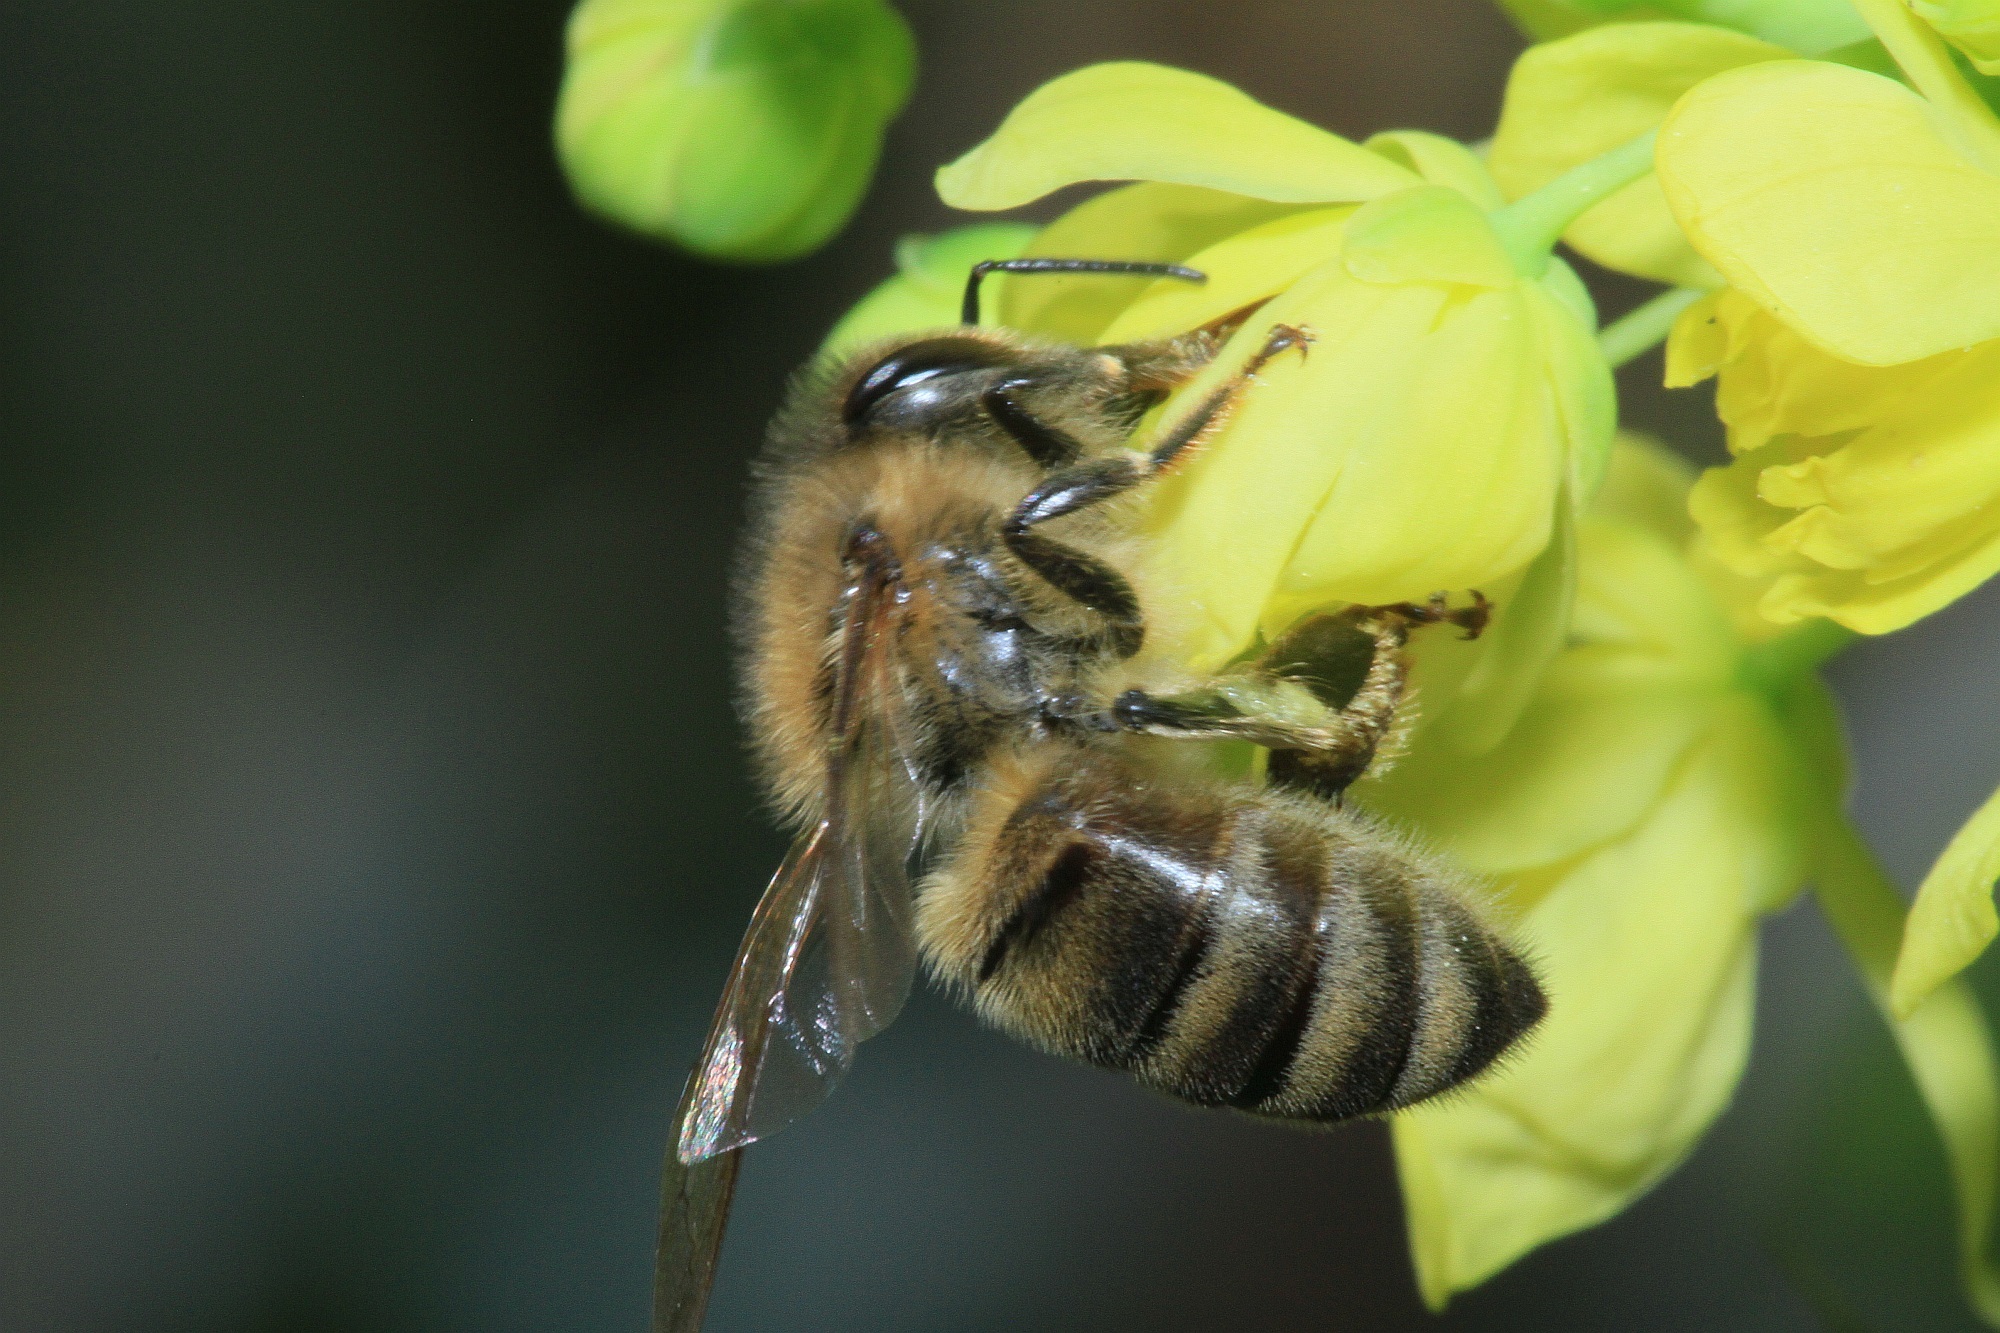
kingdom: Animalia
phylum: Arthropoda
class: Insecta
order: Hymenoptera
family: Apidae
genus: Apis
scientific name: Apis mellifera
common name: Honey bee
